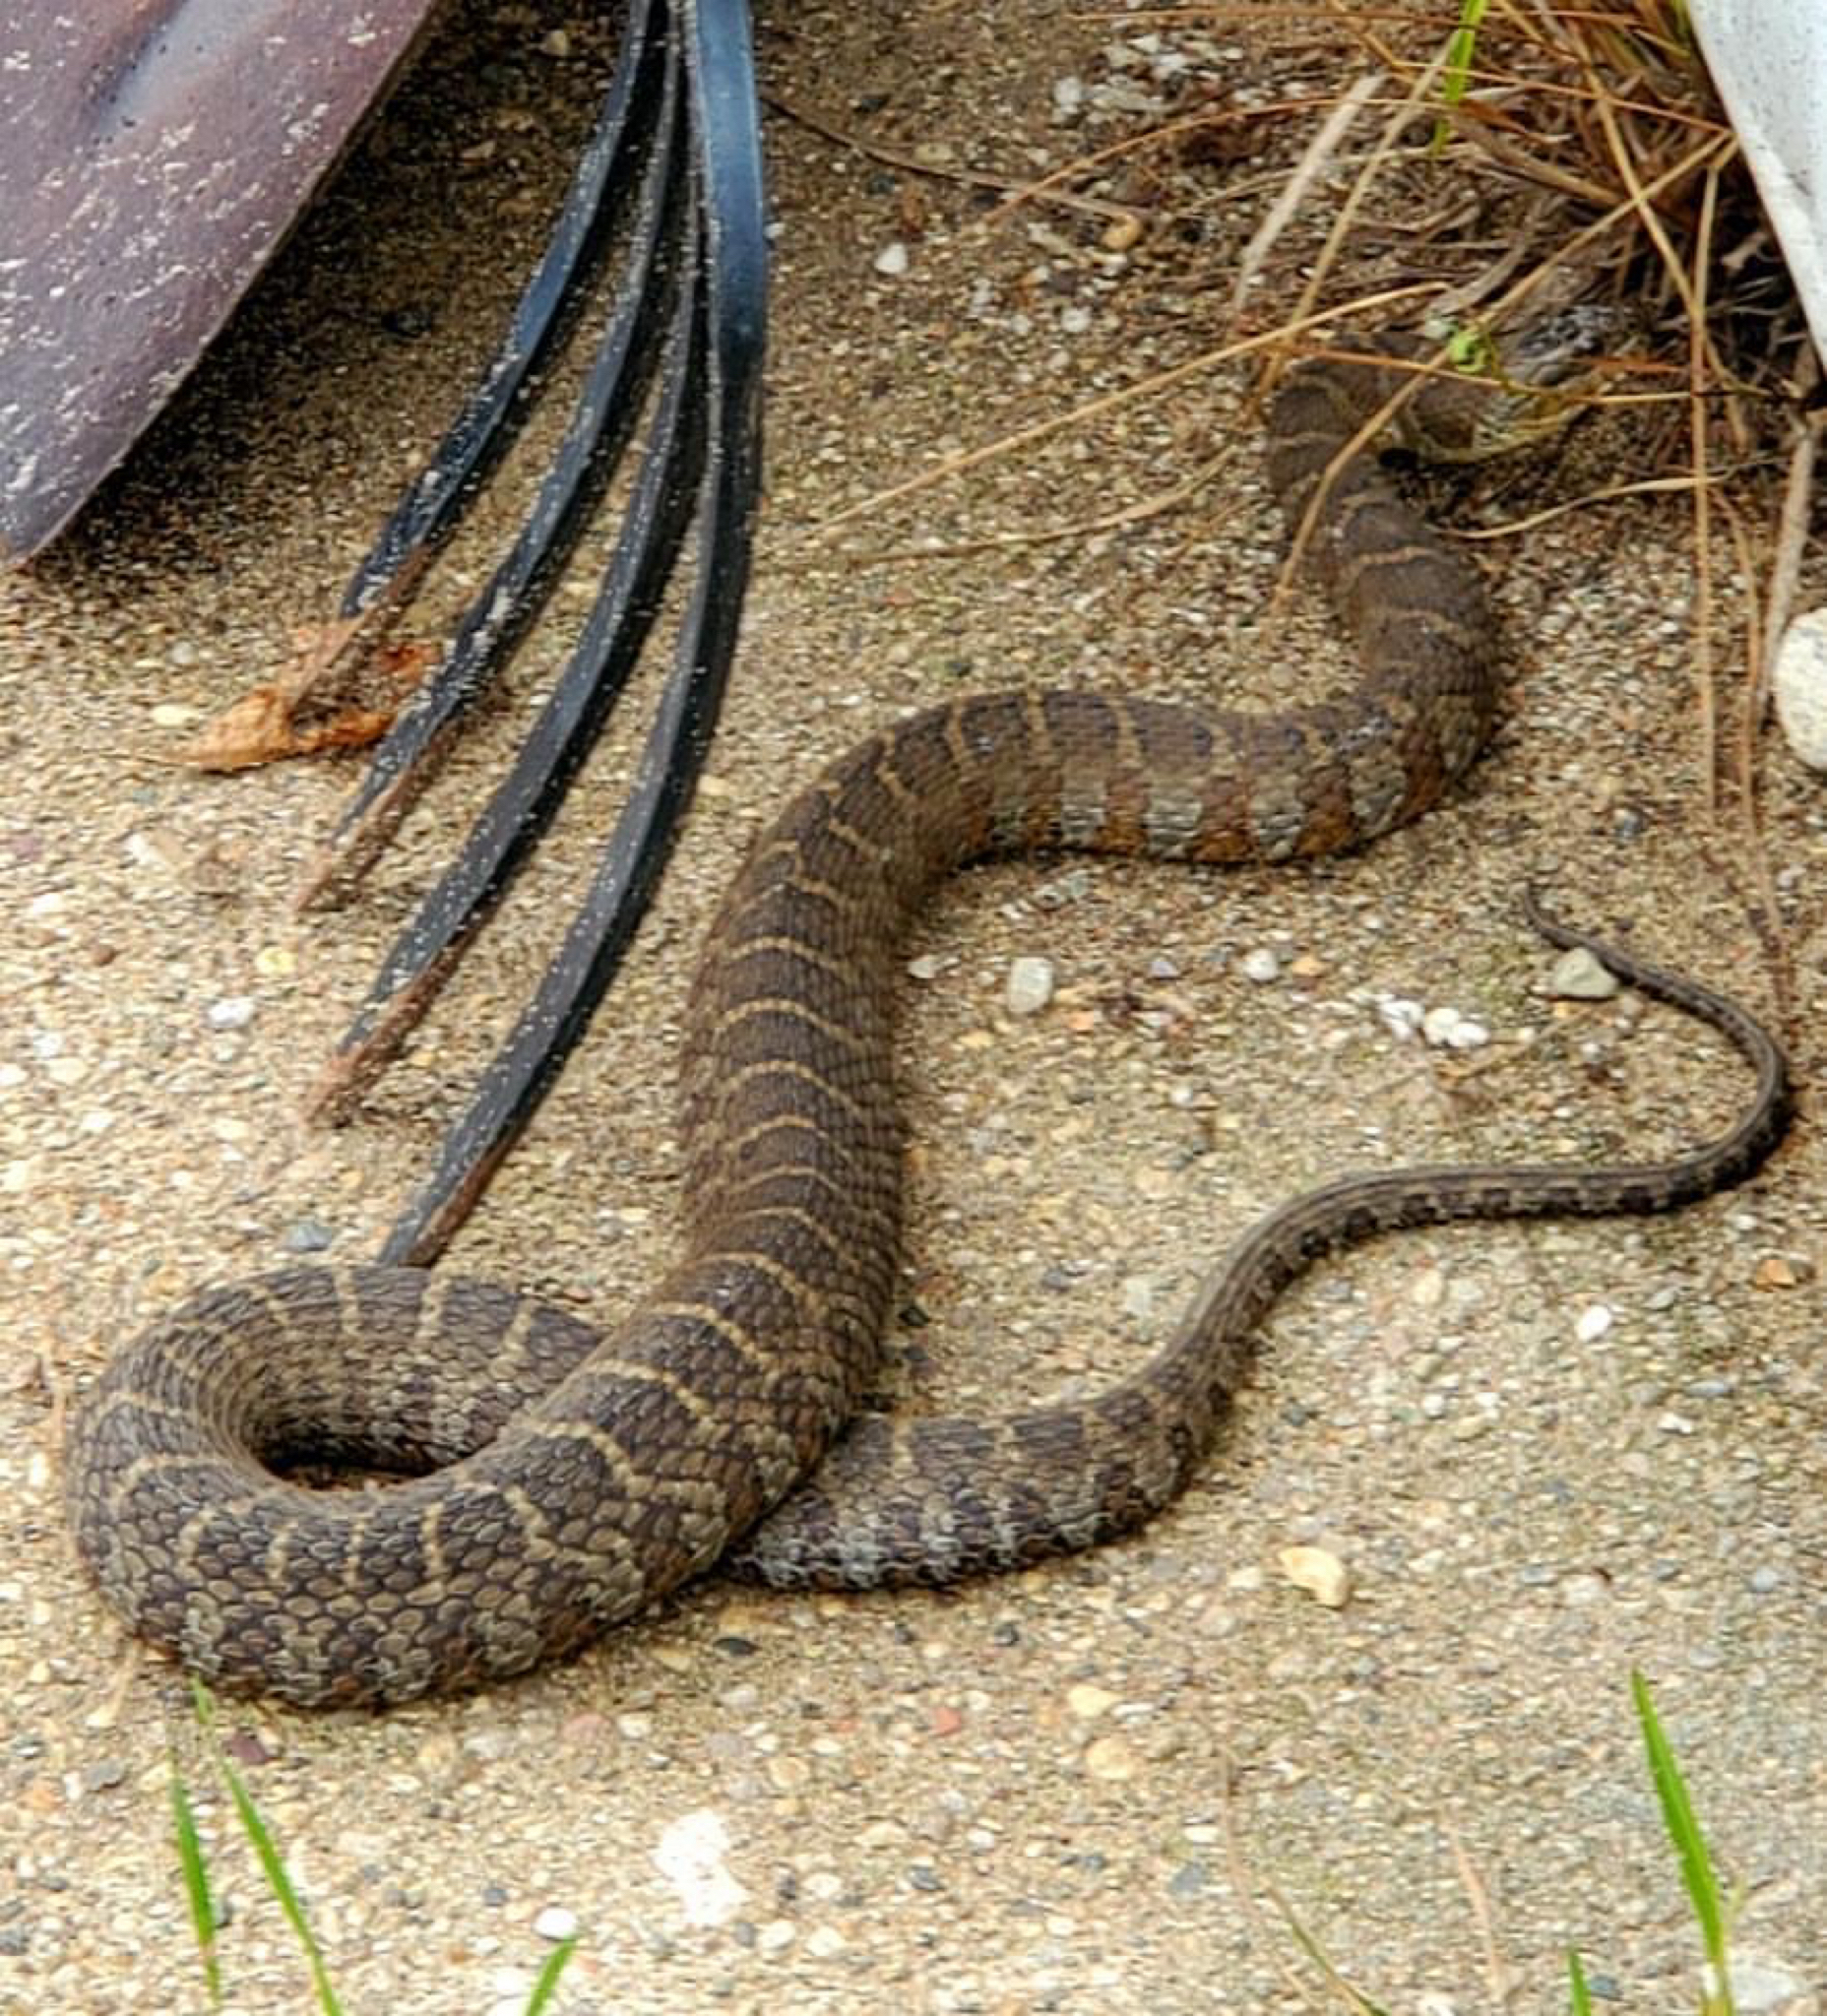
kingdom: Animalia
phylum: Chordata
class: Squamata
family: Colubridae
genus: Nerodia
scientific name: Nerodia sipedon
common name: Northern water snake
